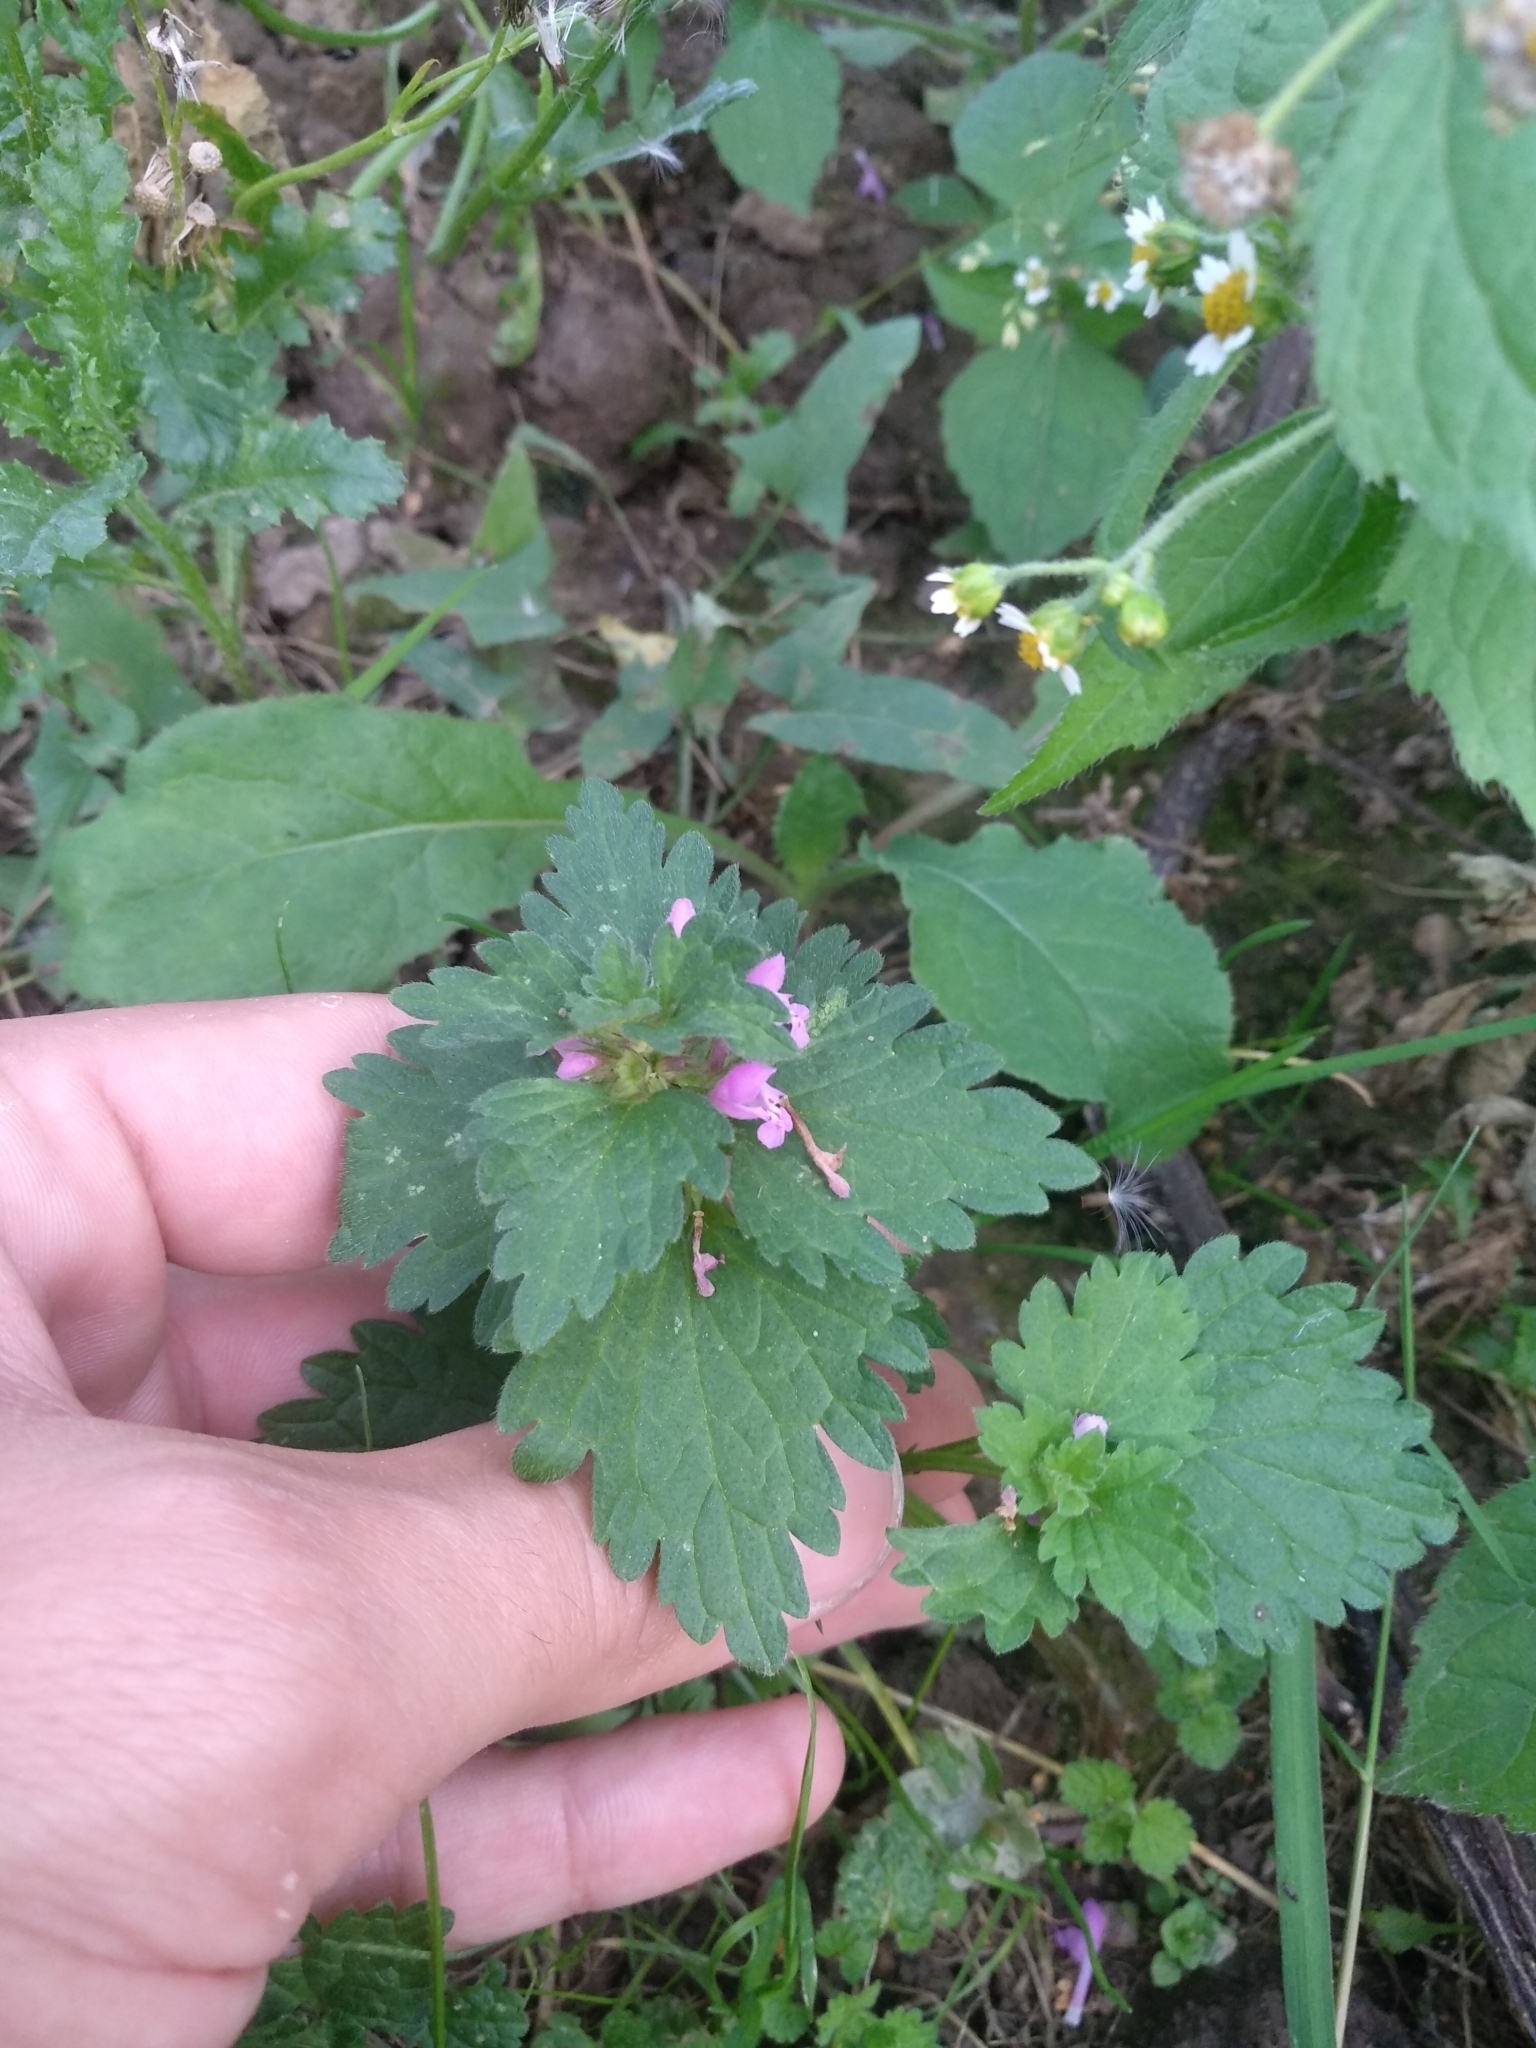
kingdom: Plantae
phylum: Tracheophyta
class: Magnoliopsida
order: Lamiales
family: Lamiaceae
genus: Lamium
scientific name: Lamium hybridum
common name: Cut-leaved dead-nettle
